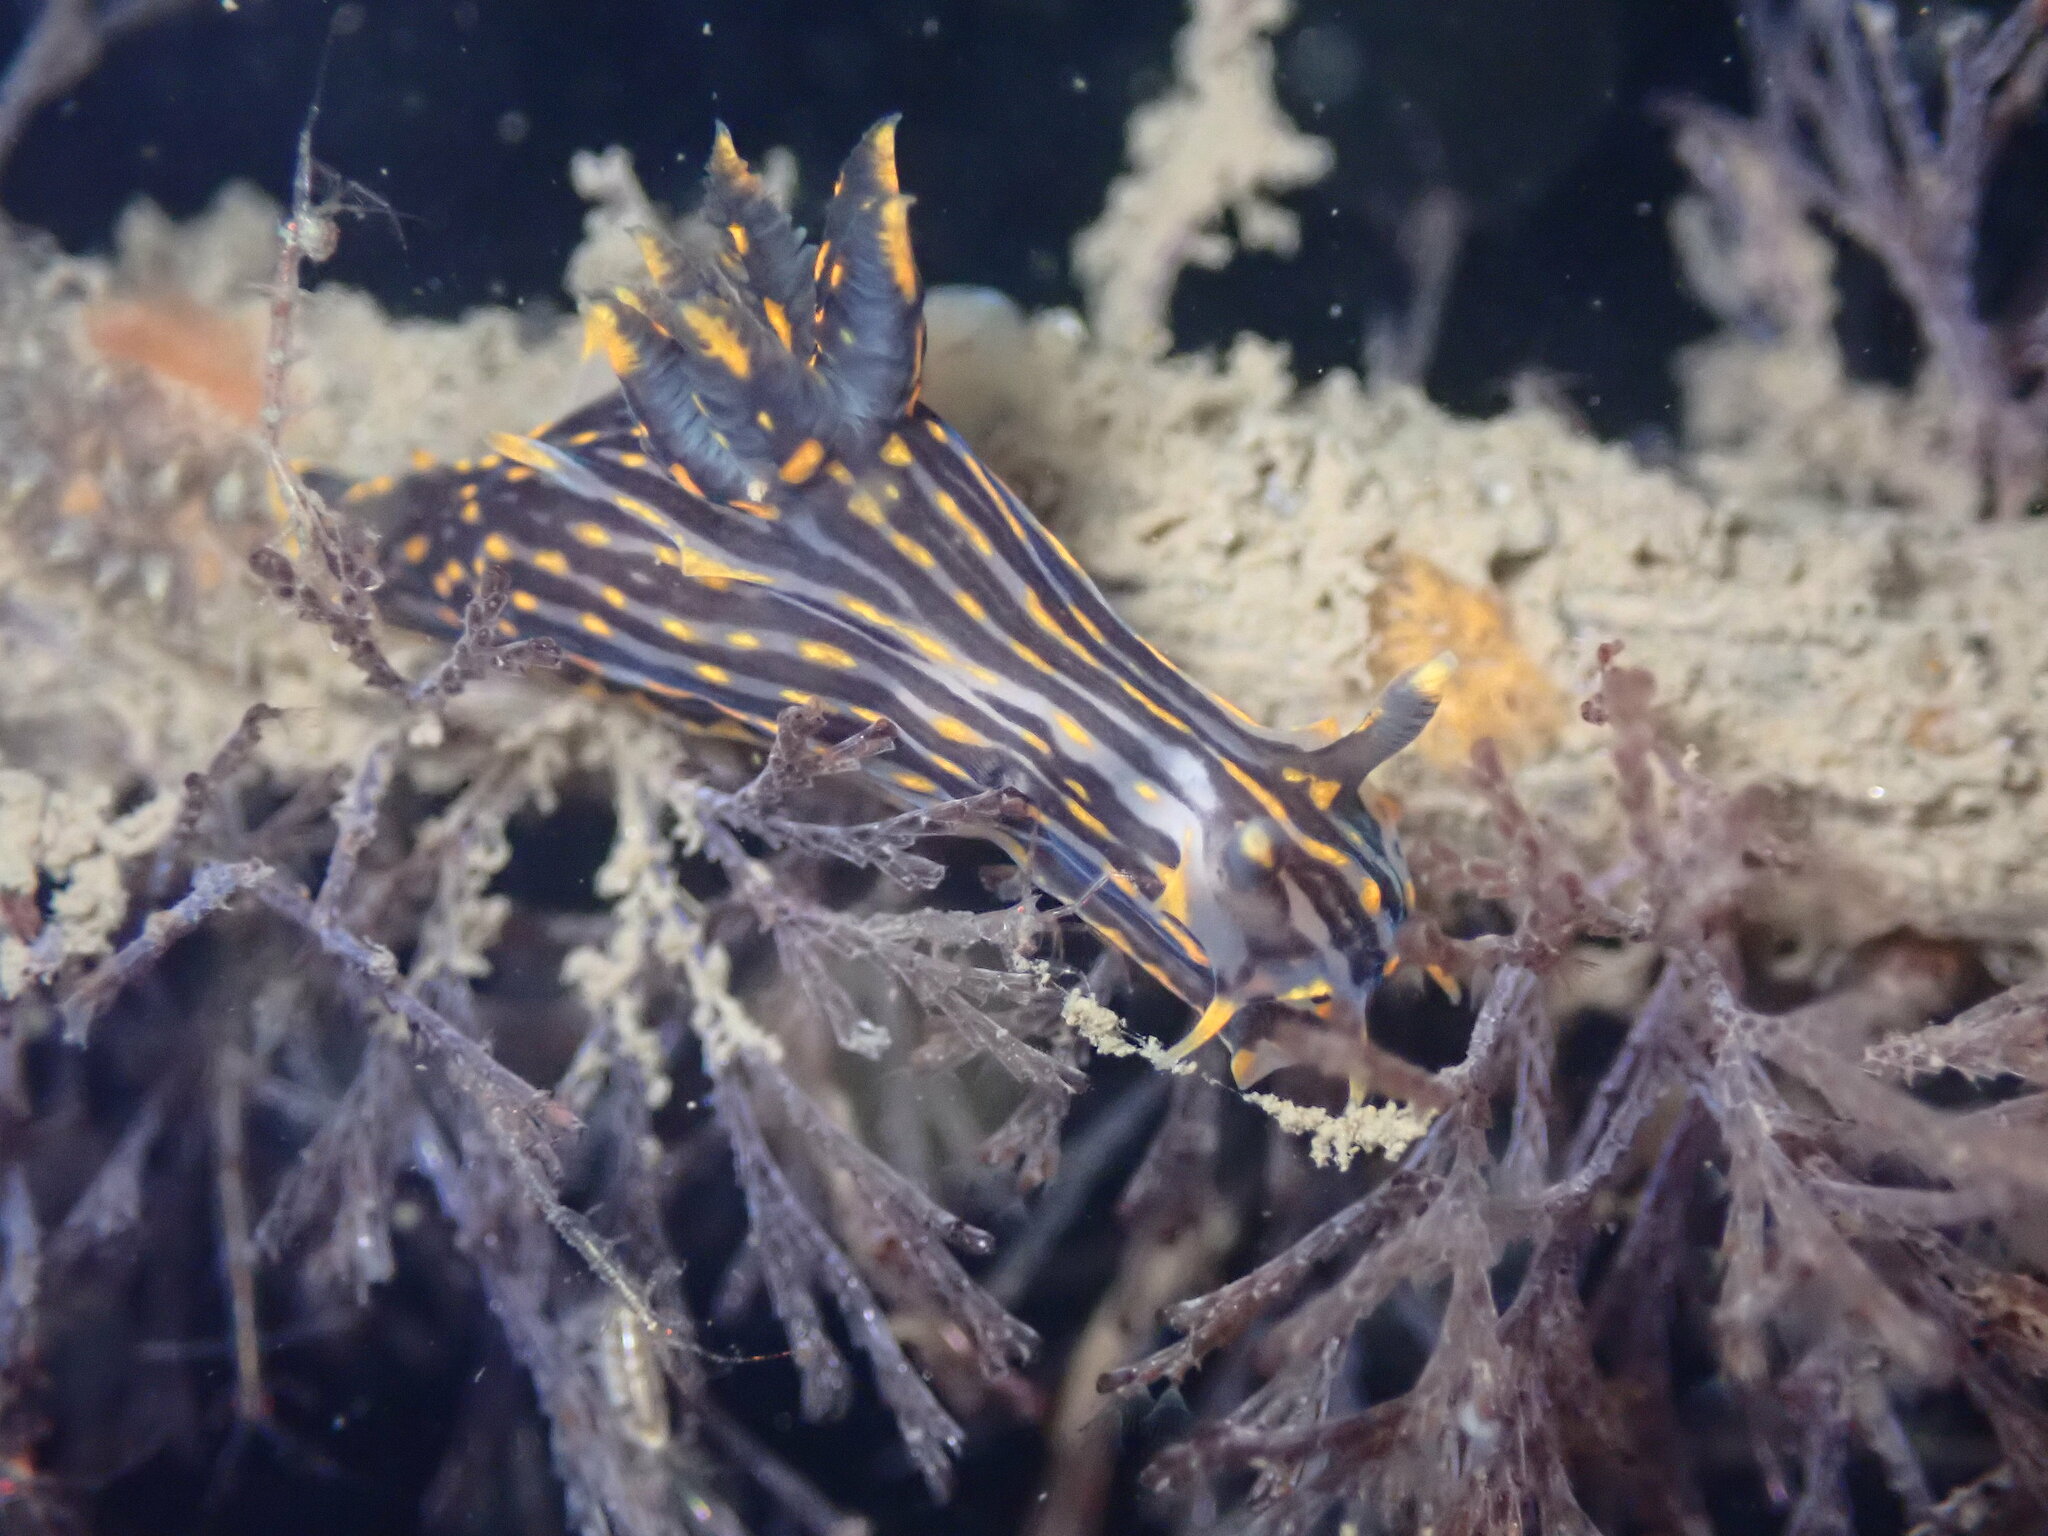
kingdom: Animalia
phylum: Mollusca
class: Gastropoda
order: Nudibranchia
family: Polyceridae
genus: Polycera
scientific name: Polycera atra
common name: Orange-spike polycera
